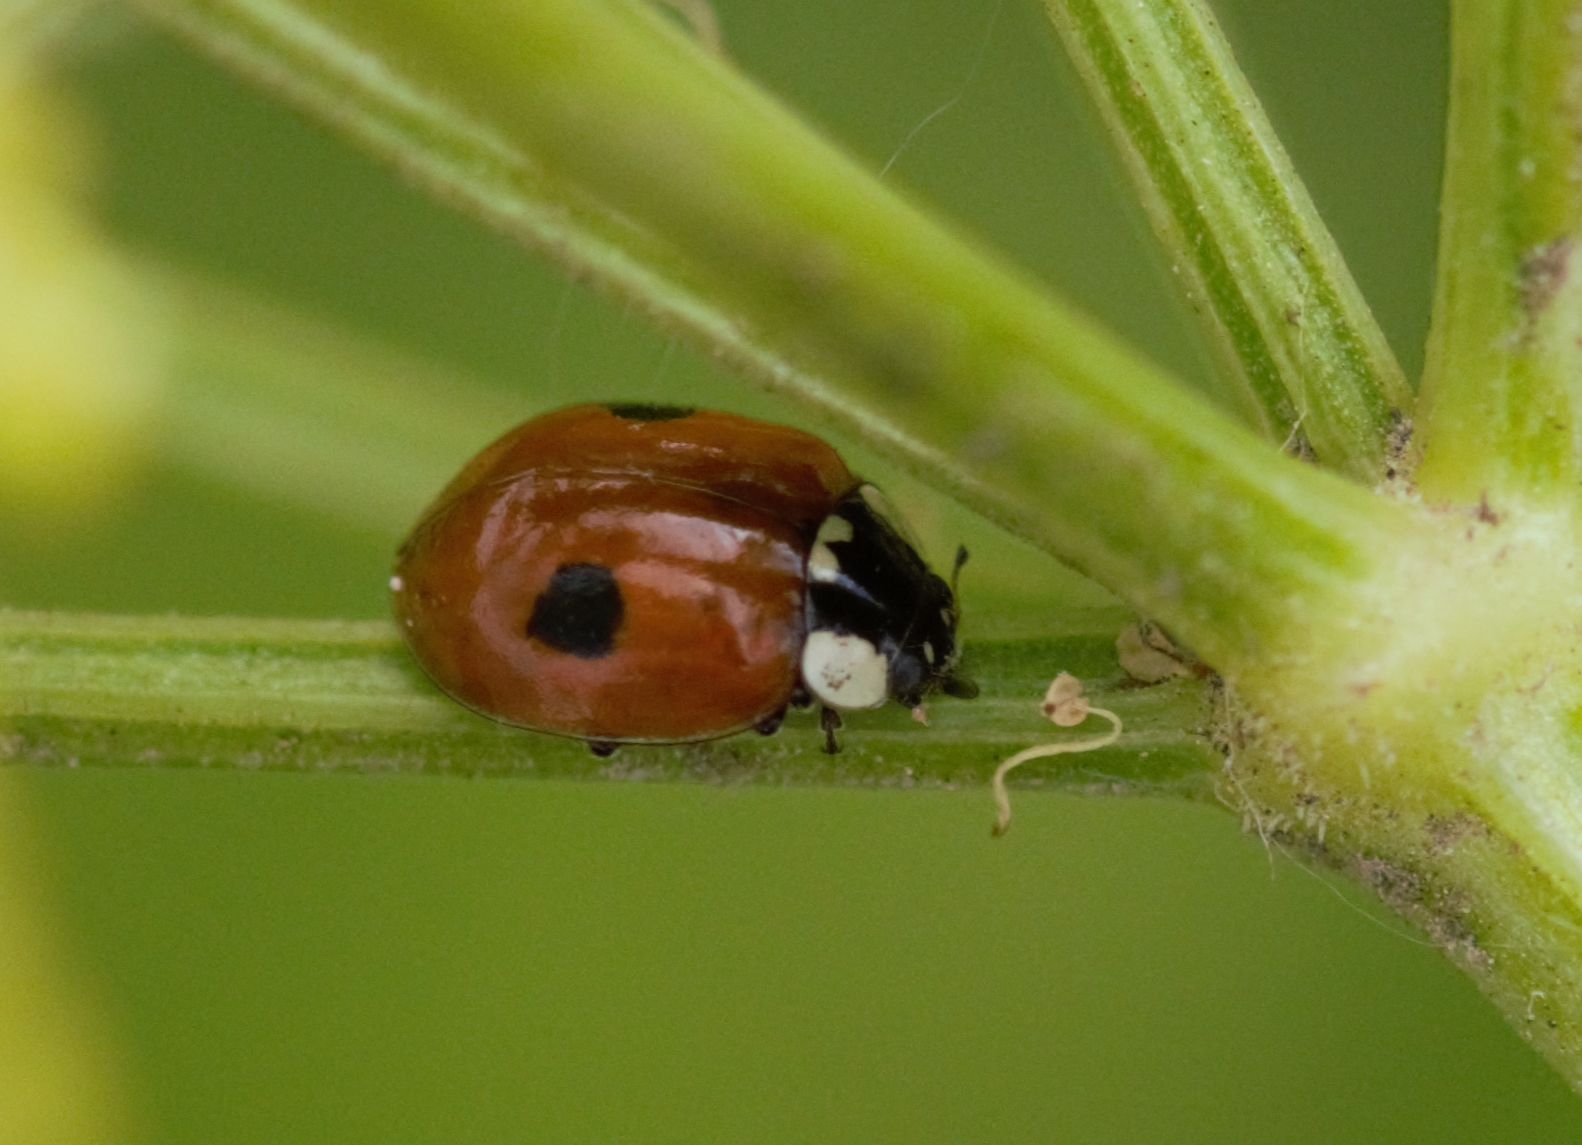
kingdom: Animalia
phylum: Arthropoda
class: Insecta
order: Coleoptera
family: Coccinellidae
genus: Adalia
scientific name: Adalia bipunctata
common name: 2-spot ladybird
